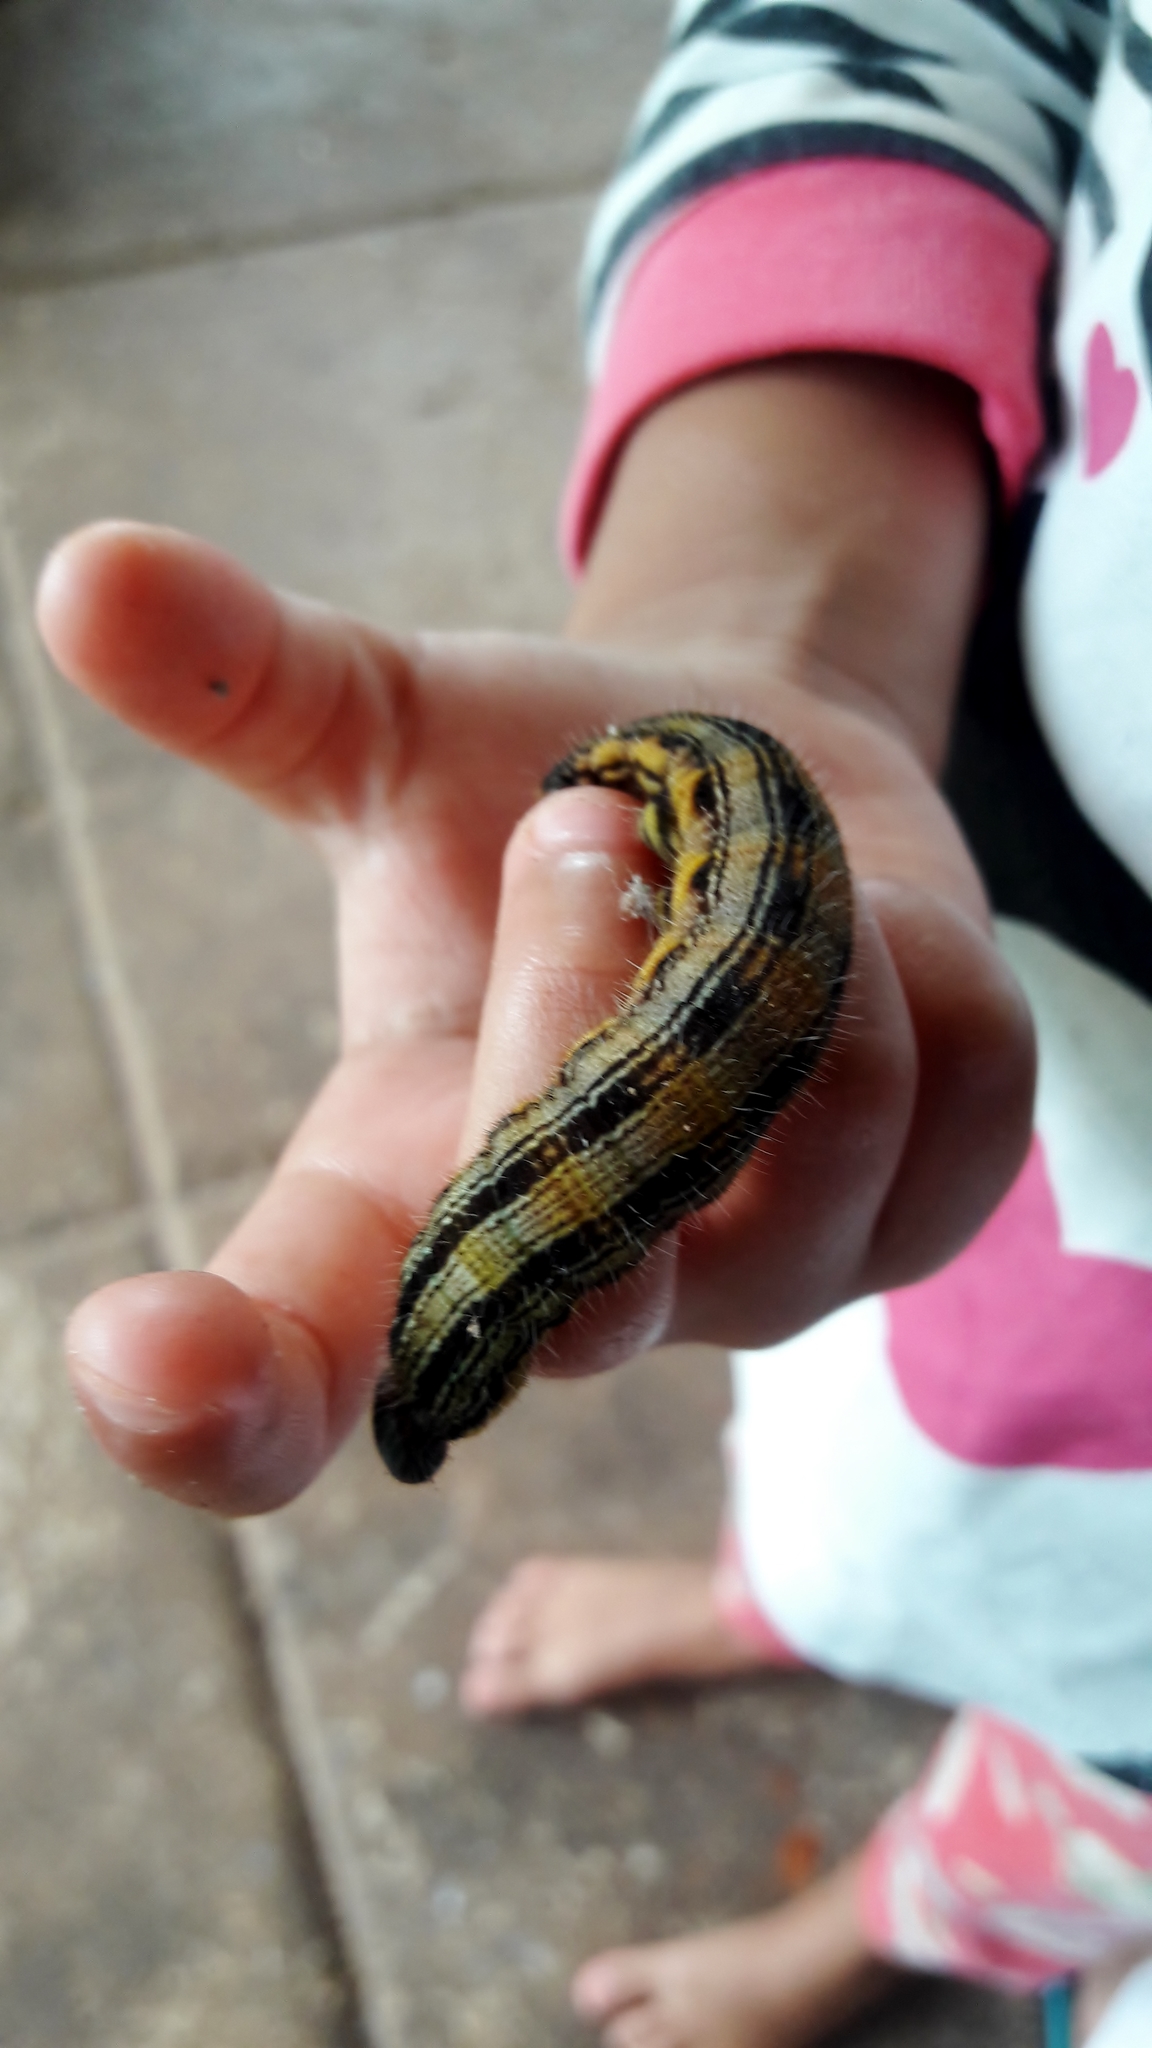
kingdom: Animalia
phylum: Arthropoda
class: Insecta
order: Lepidoptera
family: Nymphalidae
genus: Brassolis
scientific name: Brassolis sophorae
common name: Coconut caterpillar
